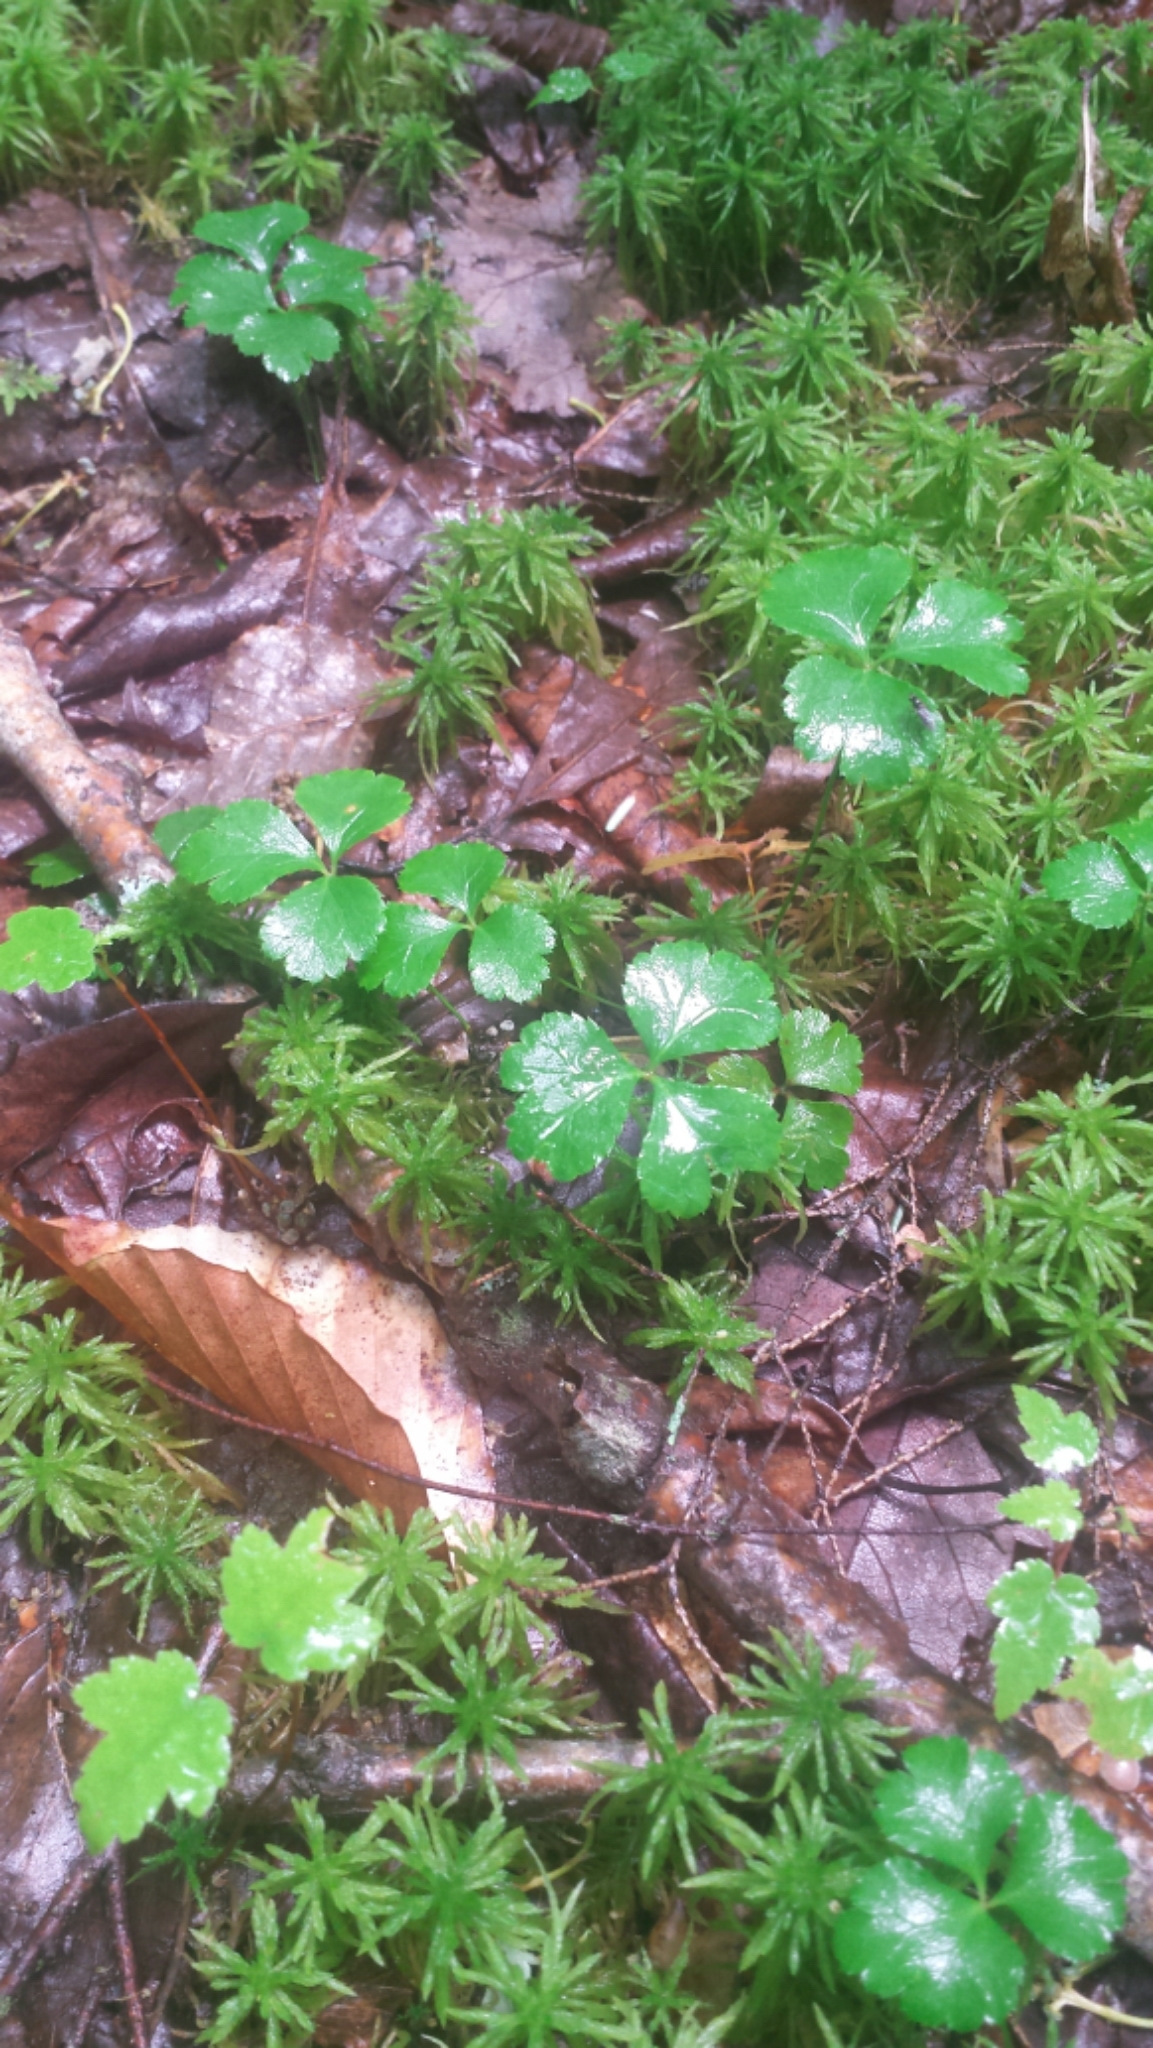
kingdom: Plantae
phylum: Tracheophyta
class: Magnoliopsida
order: Ranunculales
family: Ranunculaceae
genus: Coptis
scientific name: Coptis trifolia
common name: Canker-root
